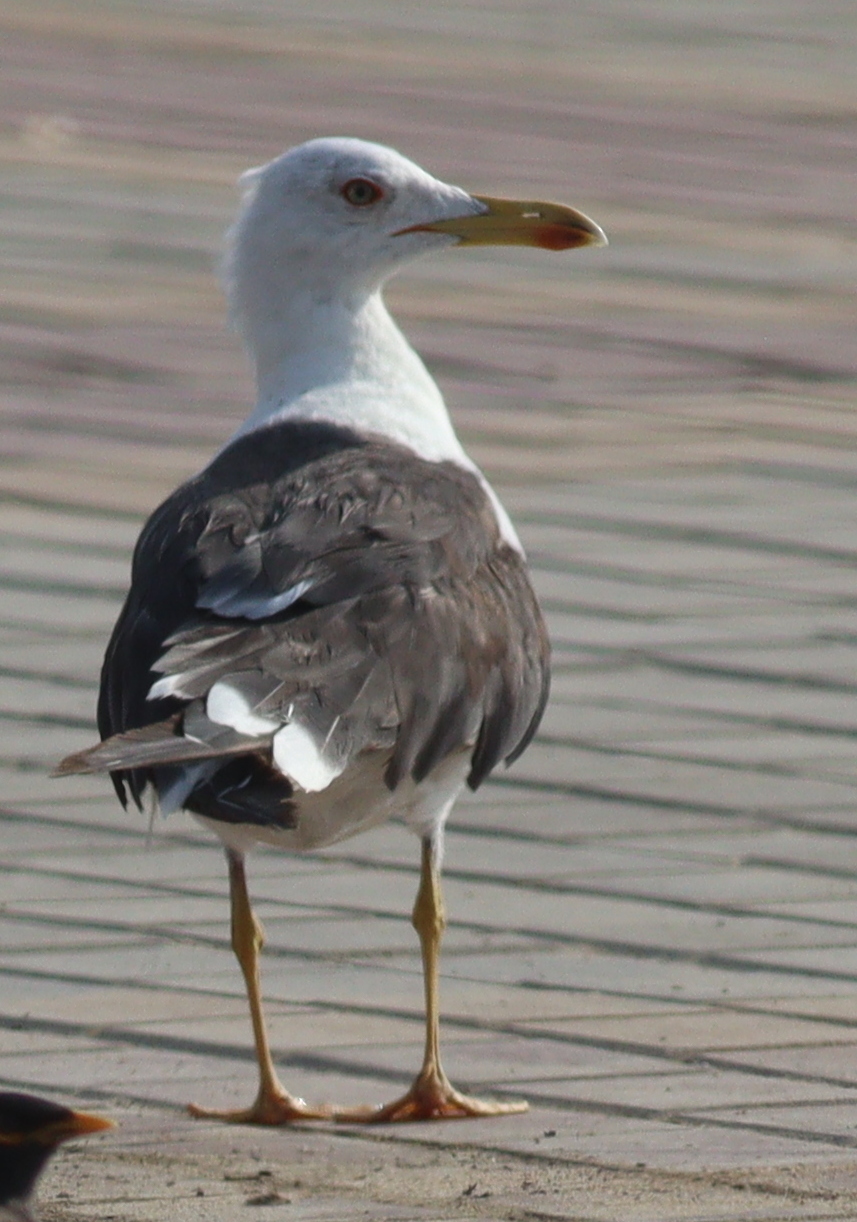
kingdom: Animalia
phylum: Chordata
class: Aves
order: Charadriiformes
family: Laridae
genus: Larus
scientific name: Larus fuscus
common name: Lesser black-backed gull
